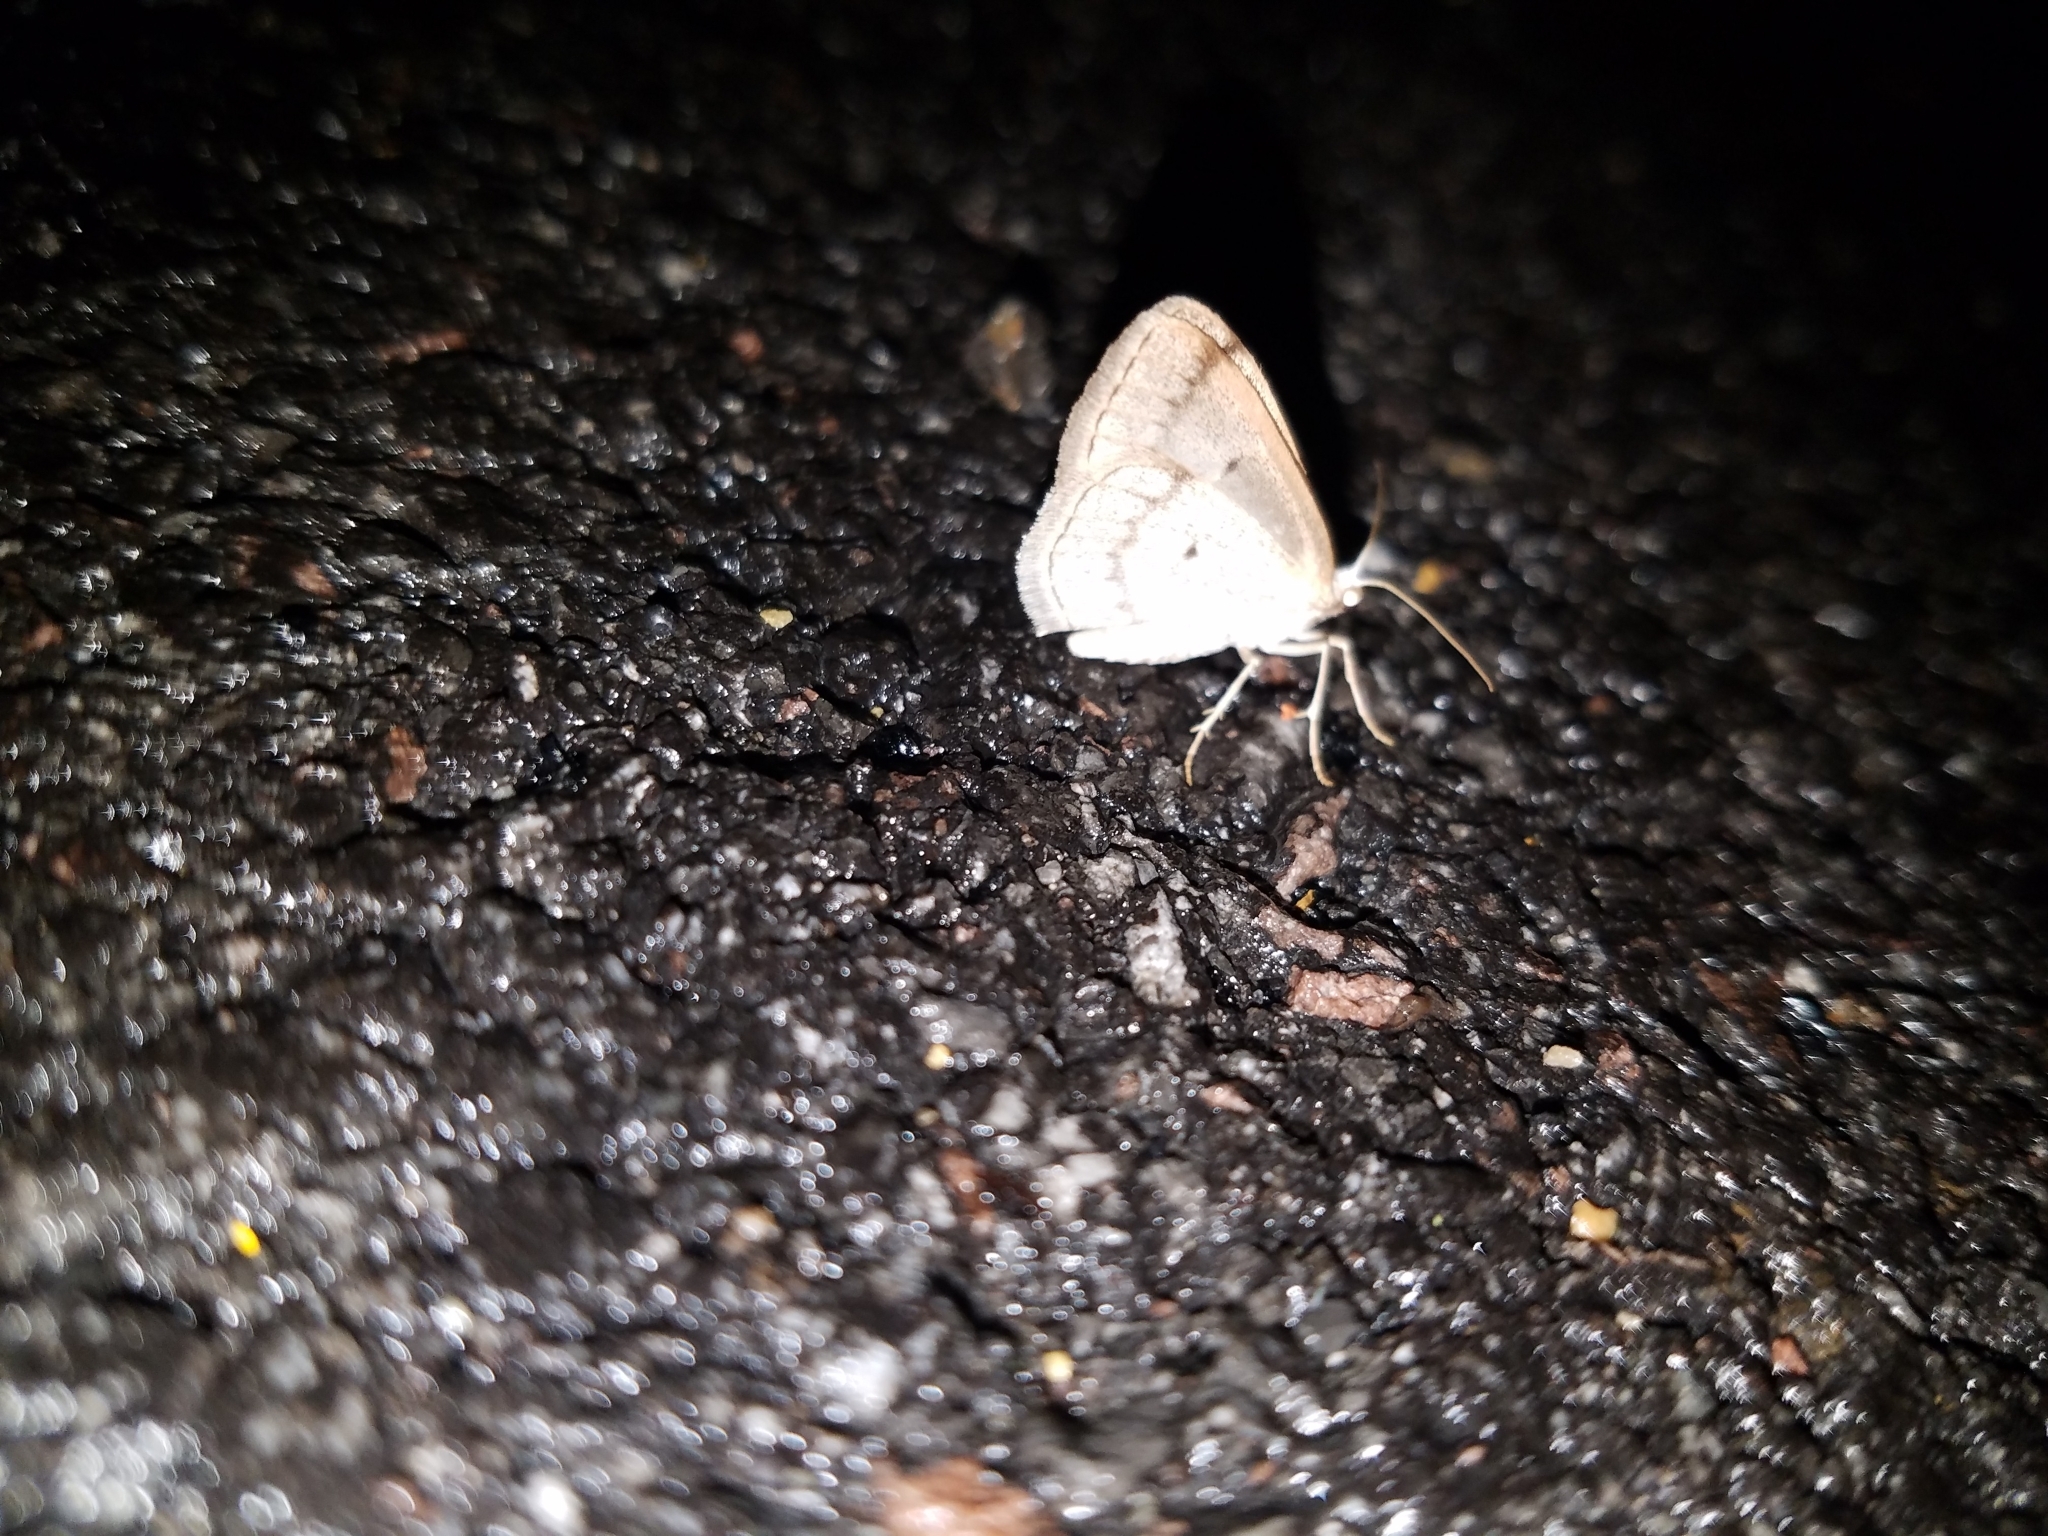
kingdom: Animalia
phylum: Arthropoda
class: Insecta
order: Lepidoptera
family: Geometridae
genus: Lomographa
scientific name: Lomographa glomeraria
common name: Gray spring moth
